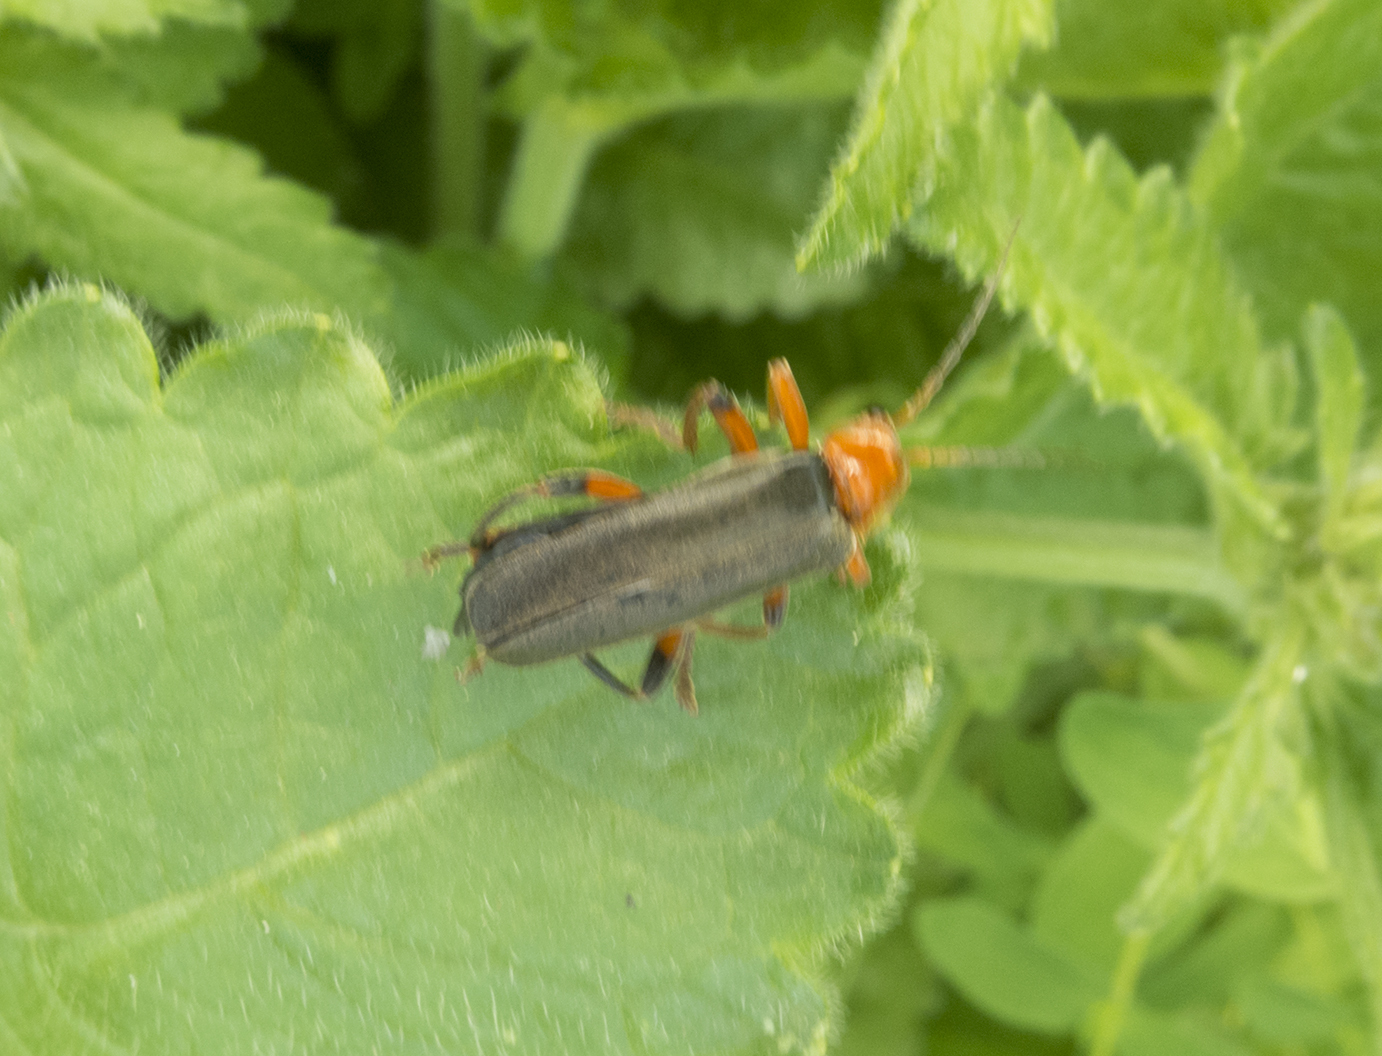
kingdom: Animalia
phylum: Arthropoda
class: Insecta
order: Coleoptera
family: Cantharidae
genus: Cantharis
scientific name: Cantharis livida
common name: Livid soldier beetle
